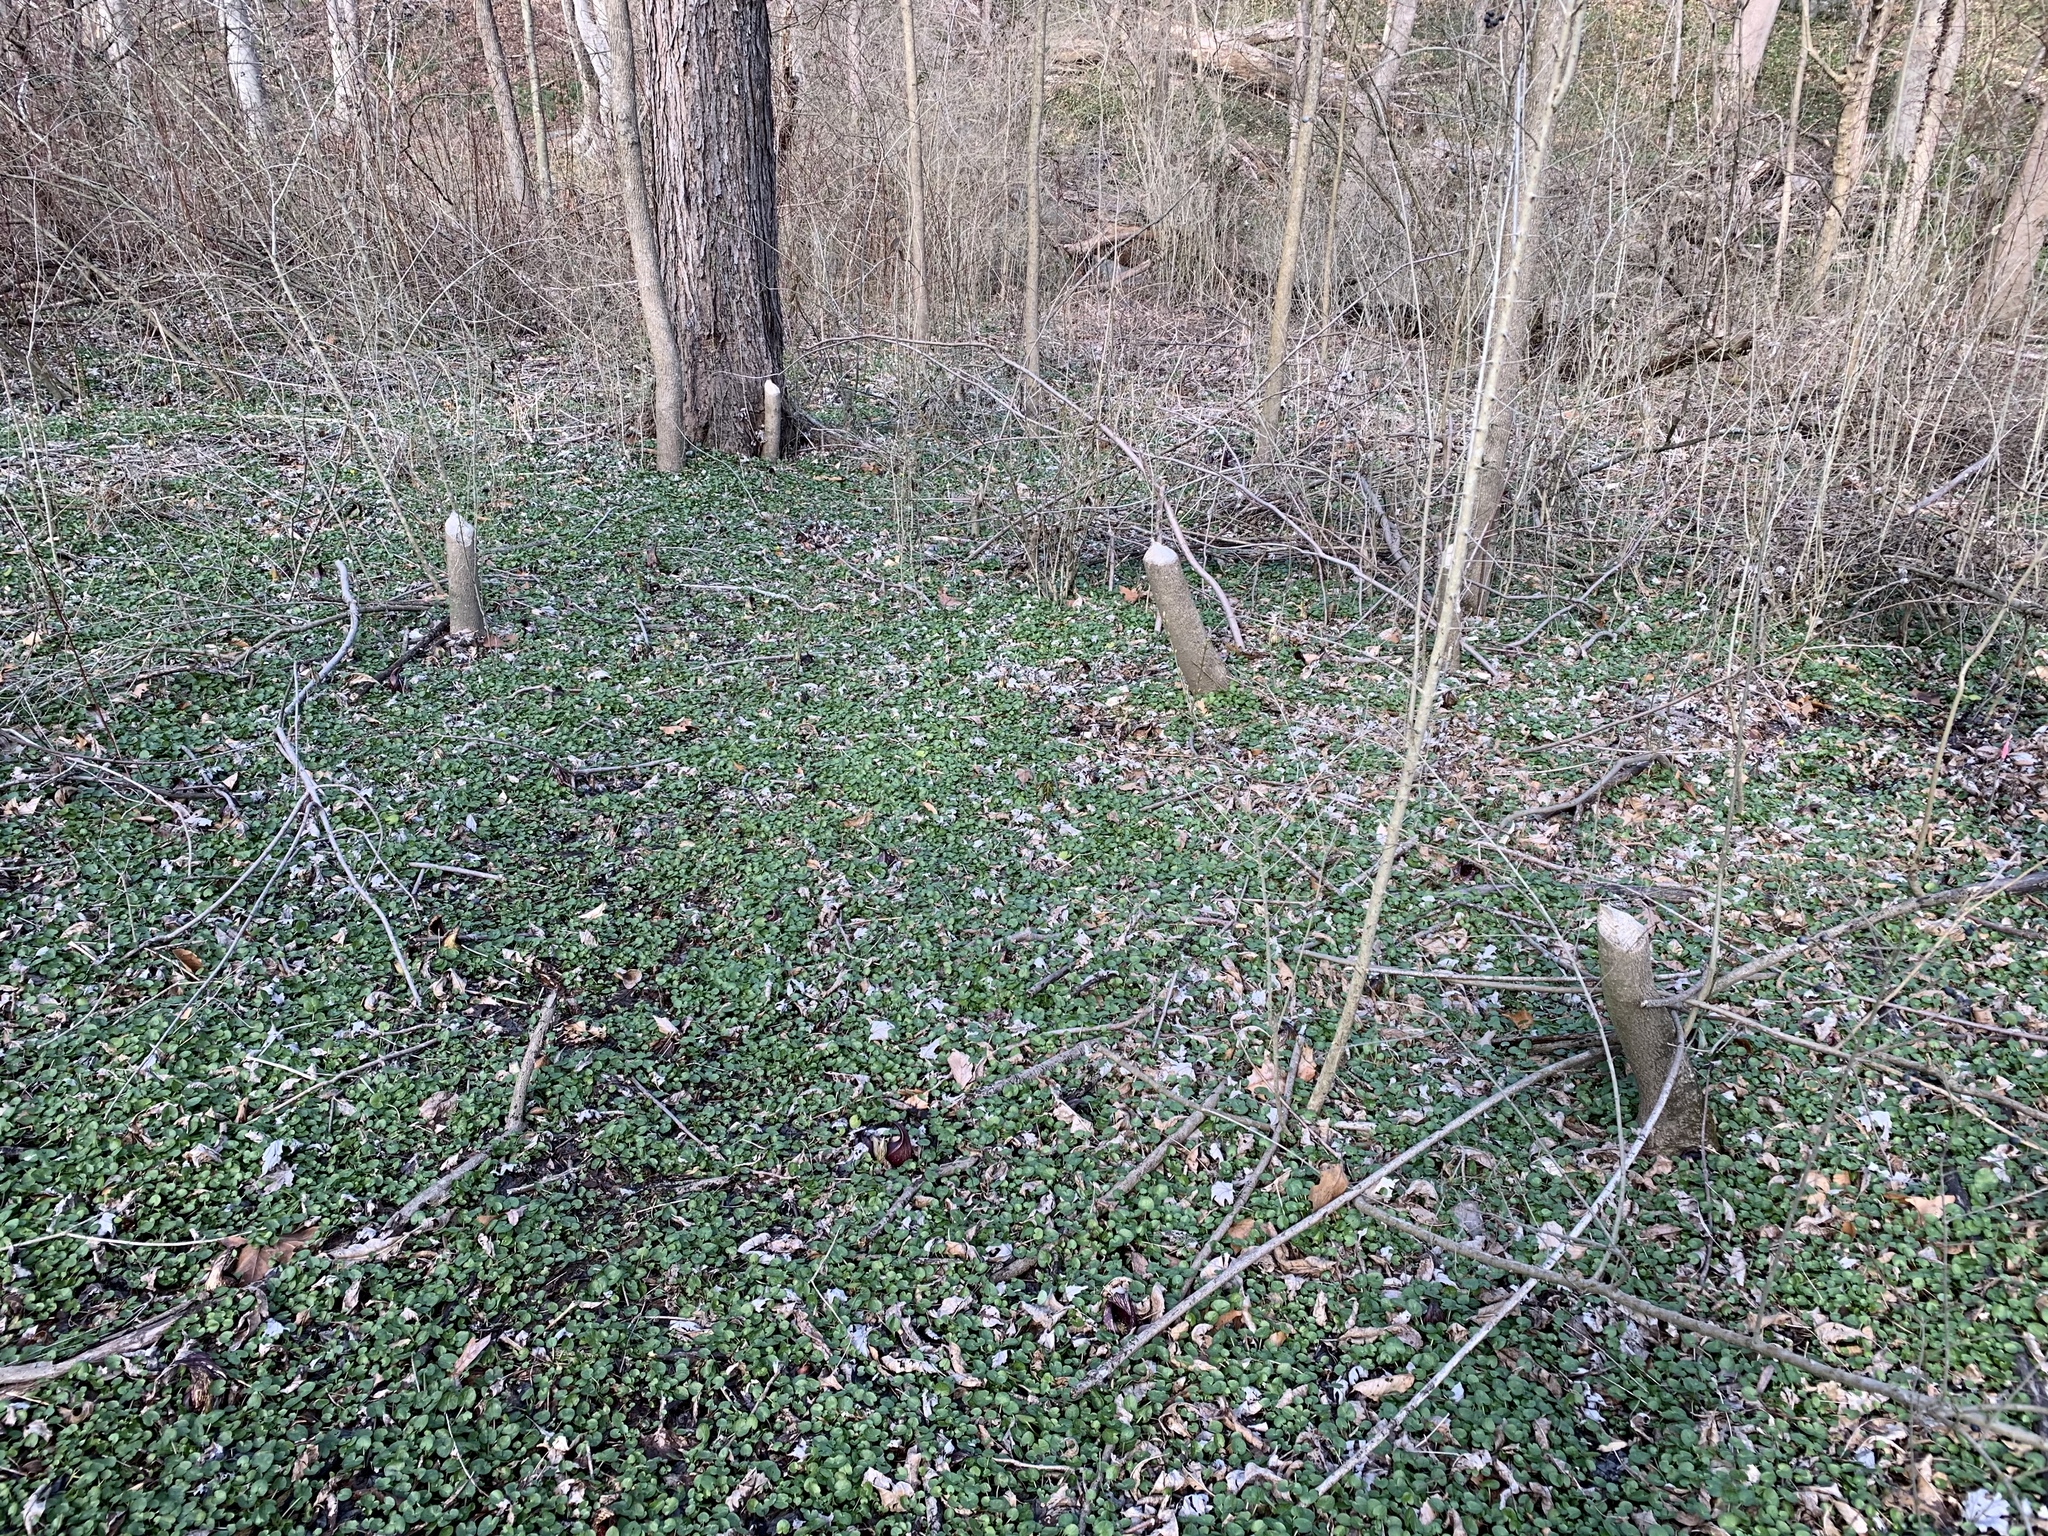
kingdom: Animalia
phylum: Chordata
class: Mammalia
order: Rodentia
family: Castoridae
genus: Castor
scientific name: Castor canadensis
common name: American beaver
